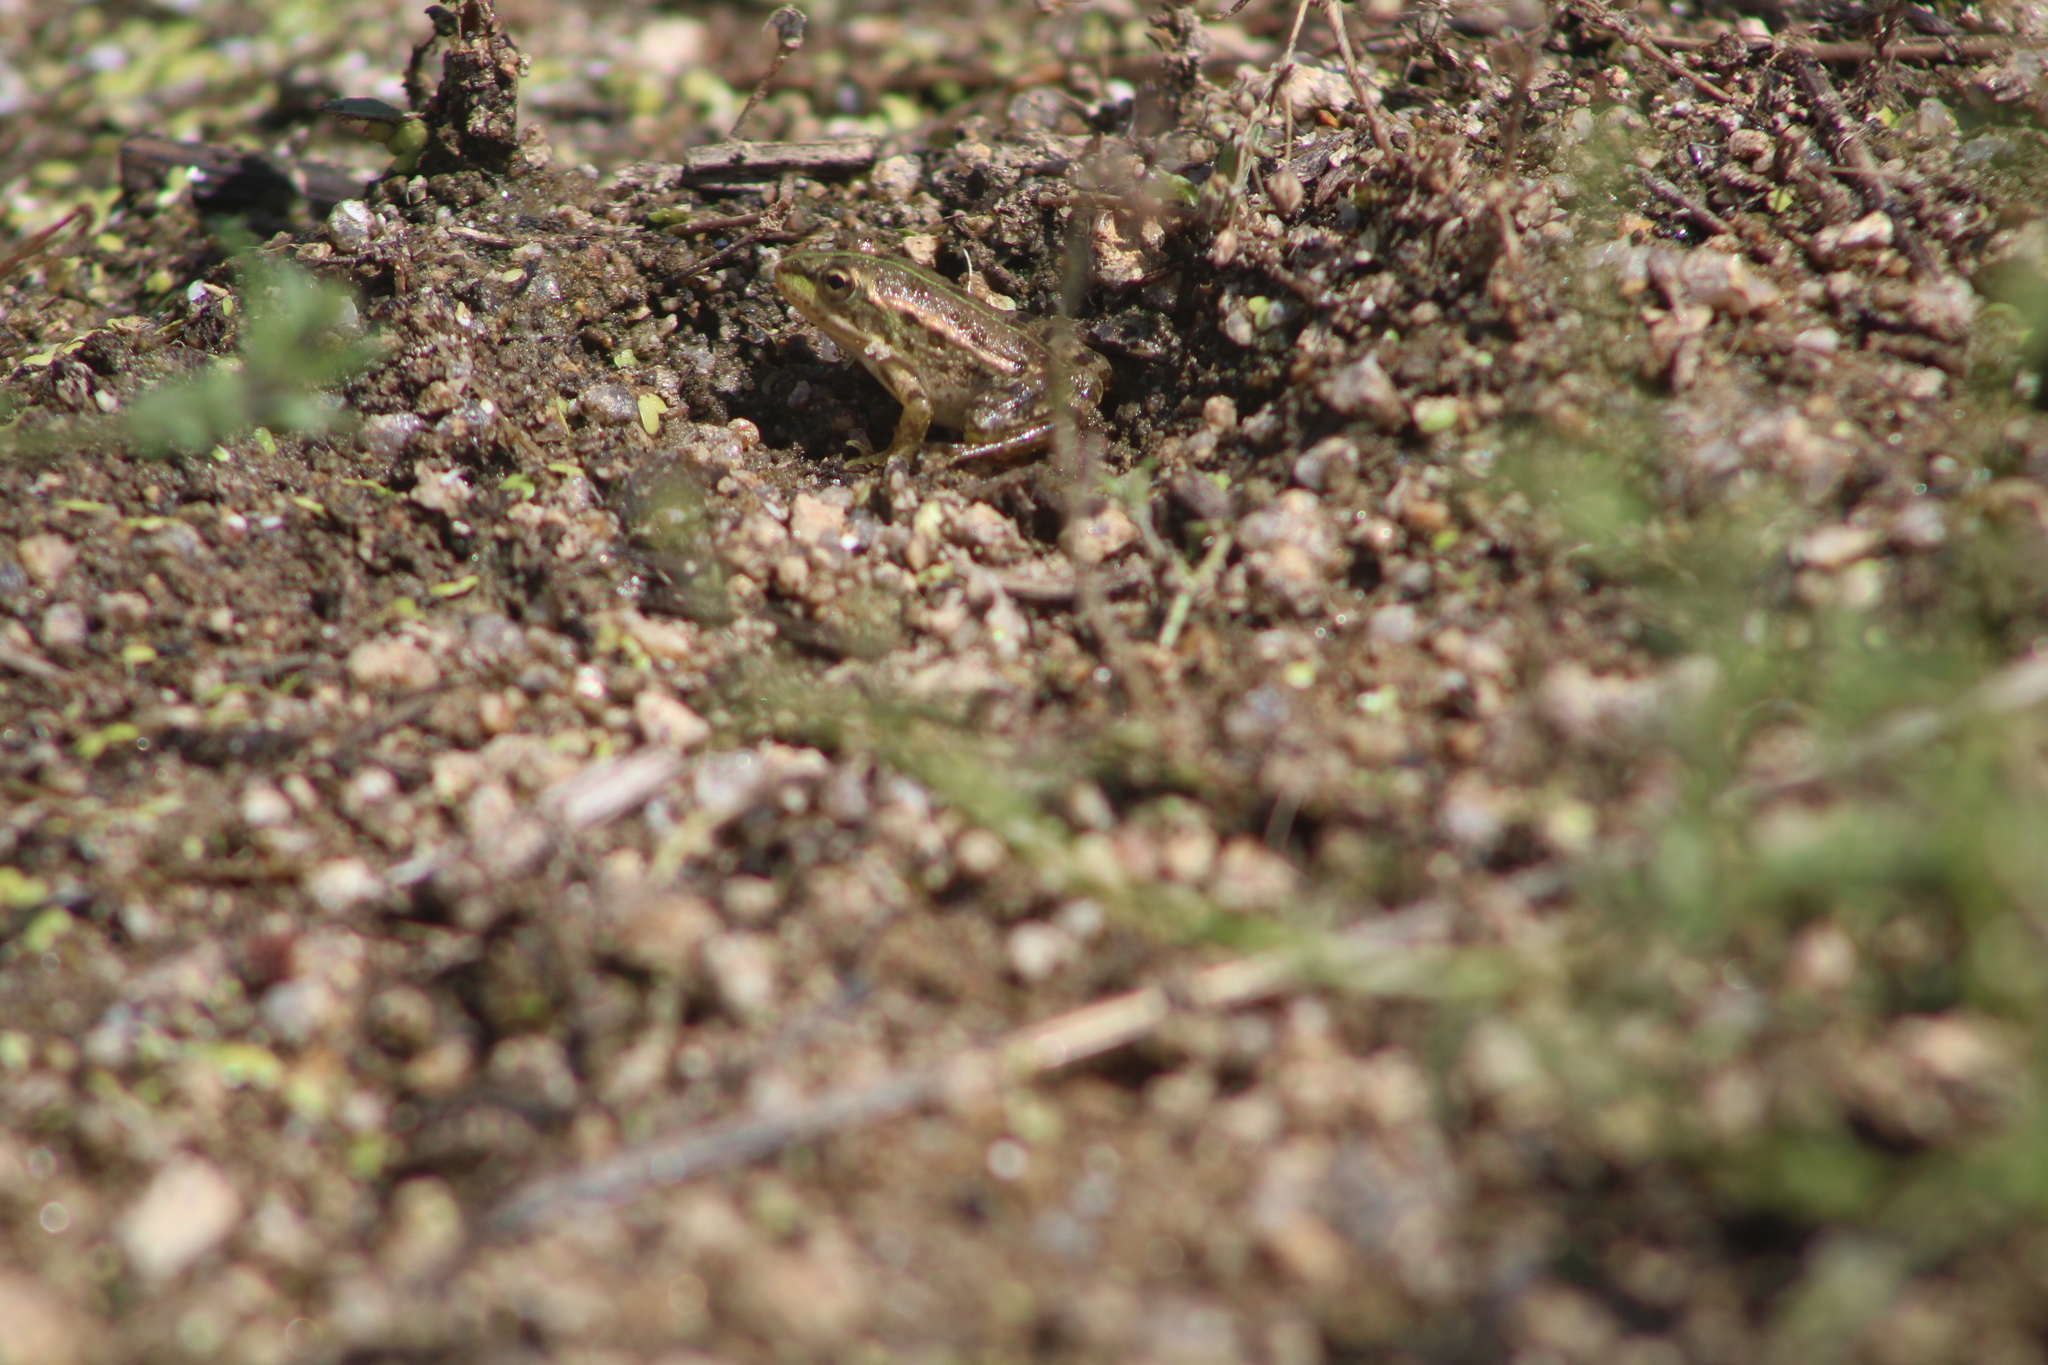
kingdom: Animalia
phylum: Chordata
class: Amphibia
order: Anura
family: Ranidae
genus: Pelophylax
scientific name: Pelophylax perezi
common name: Perez's frog
